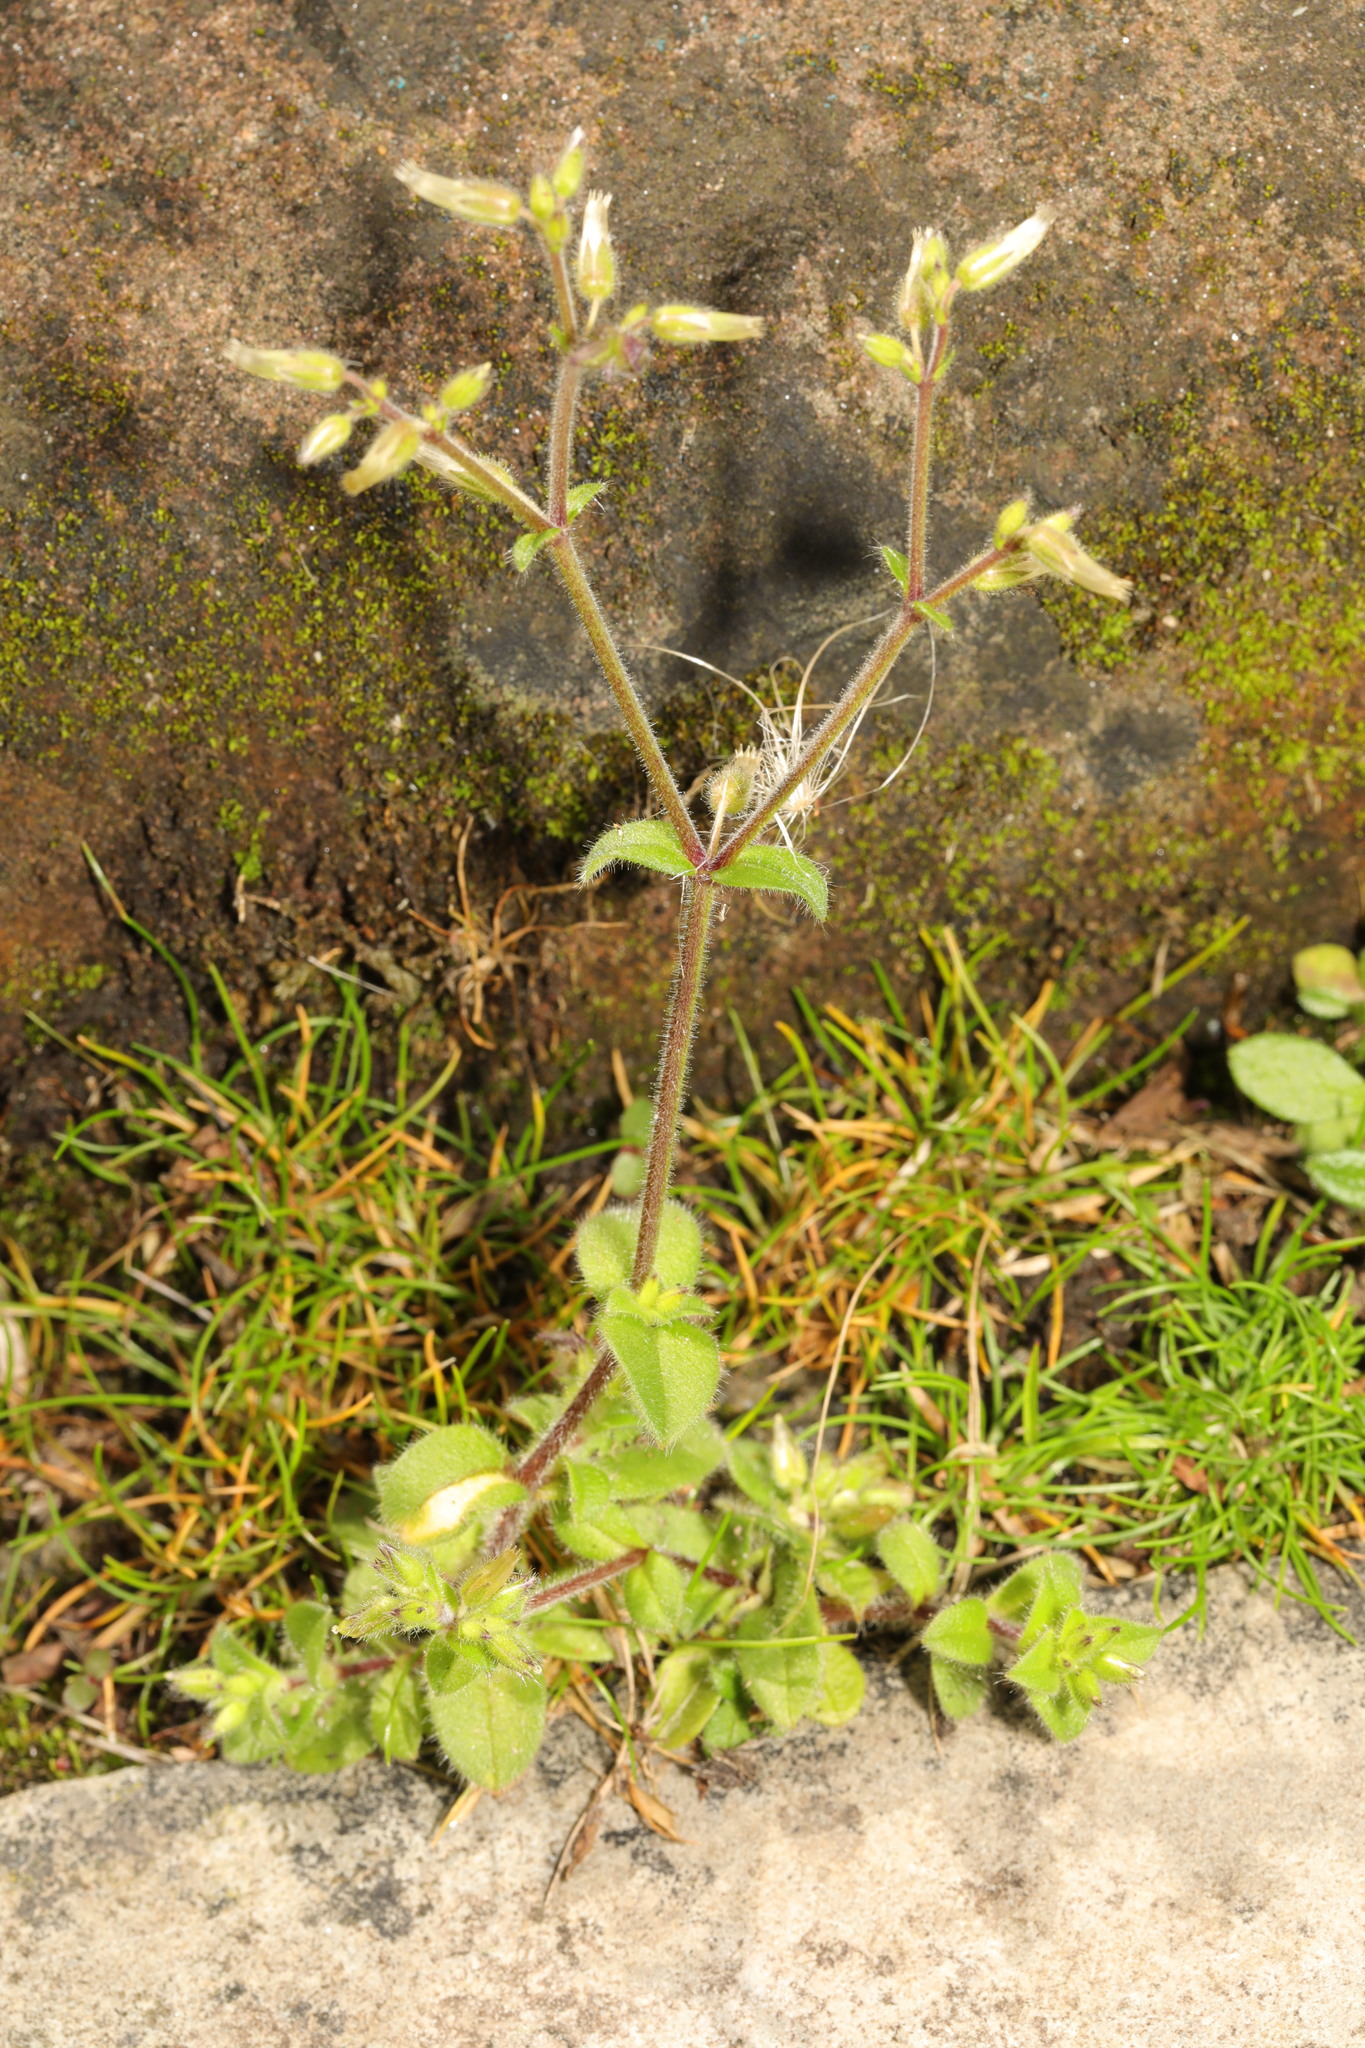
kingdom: Plantae
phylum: Tracheophyta
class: Magnoliopsida
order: Caryophyllales
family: Caryophyllaceae
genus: Cerastium
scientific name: Cerastium glomeratum
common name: Sticky chickweed
